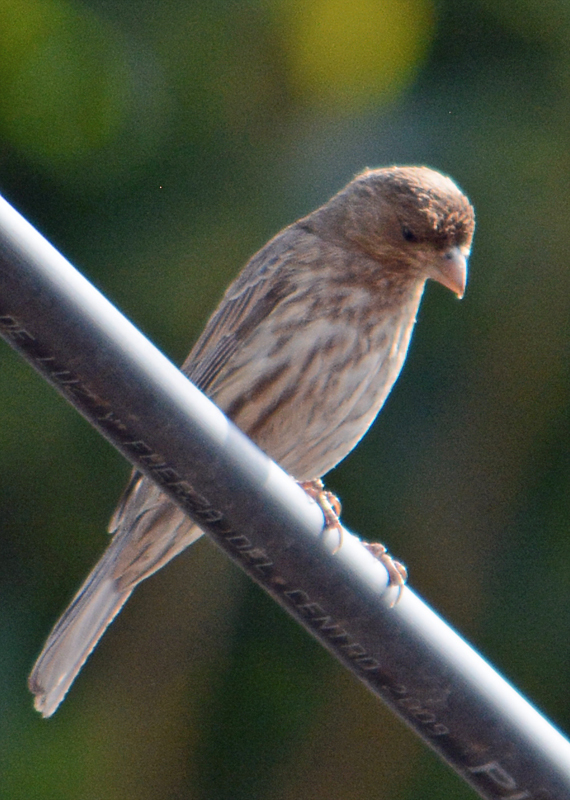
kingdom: Animalia
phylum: Chordata
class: Aves
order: Passeriformes
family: Fringillidae
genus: Haemorhous
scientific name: Haemorhous mexicanus
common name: House finch
